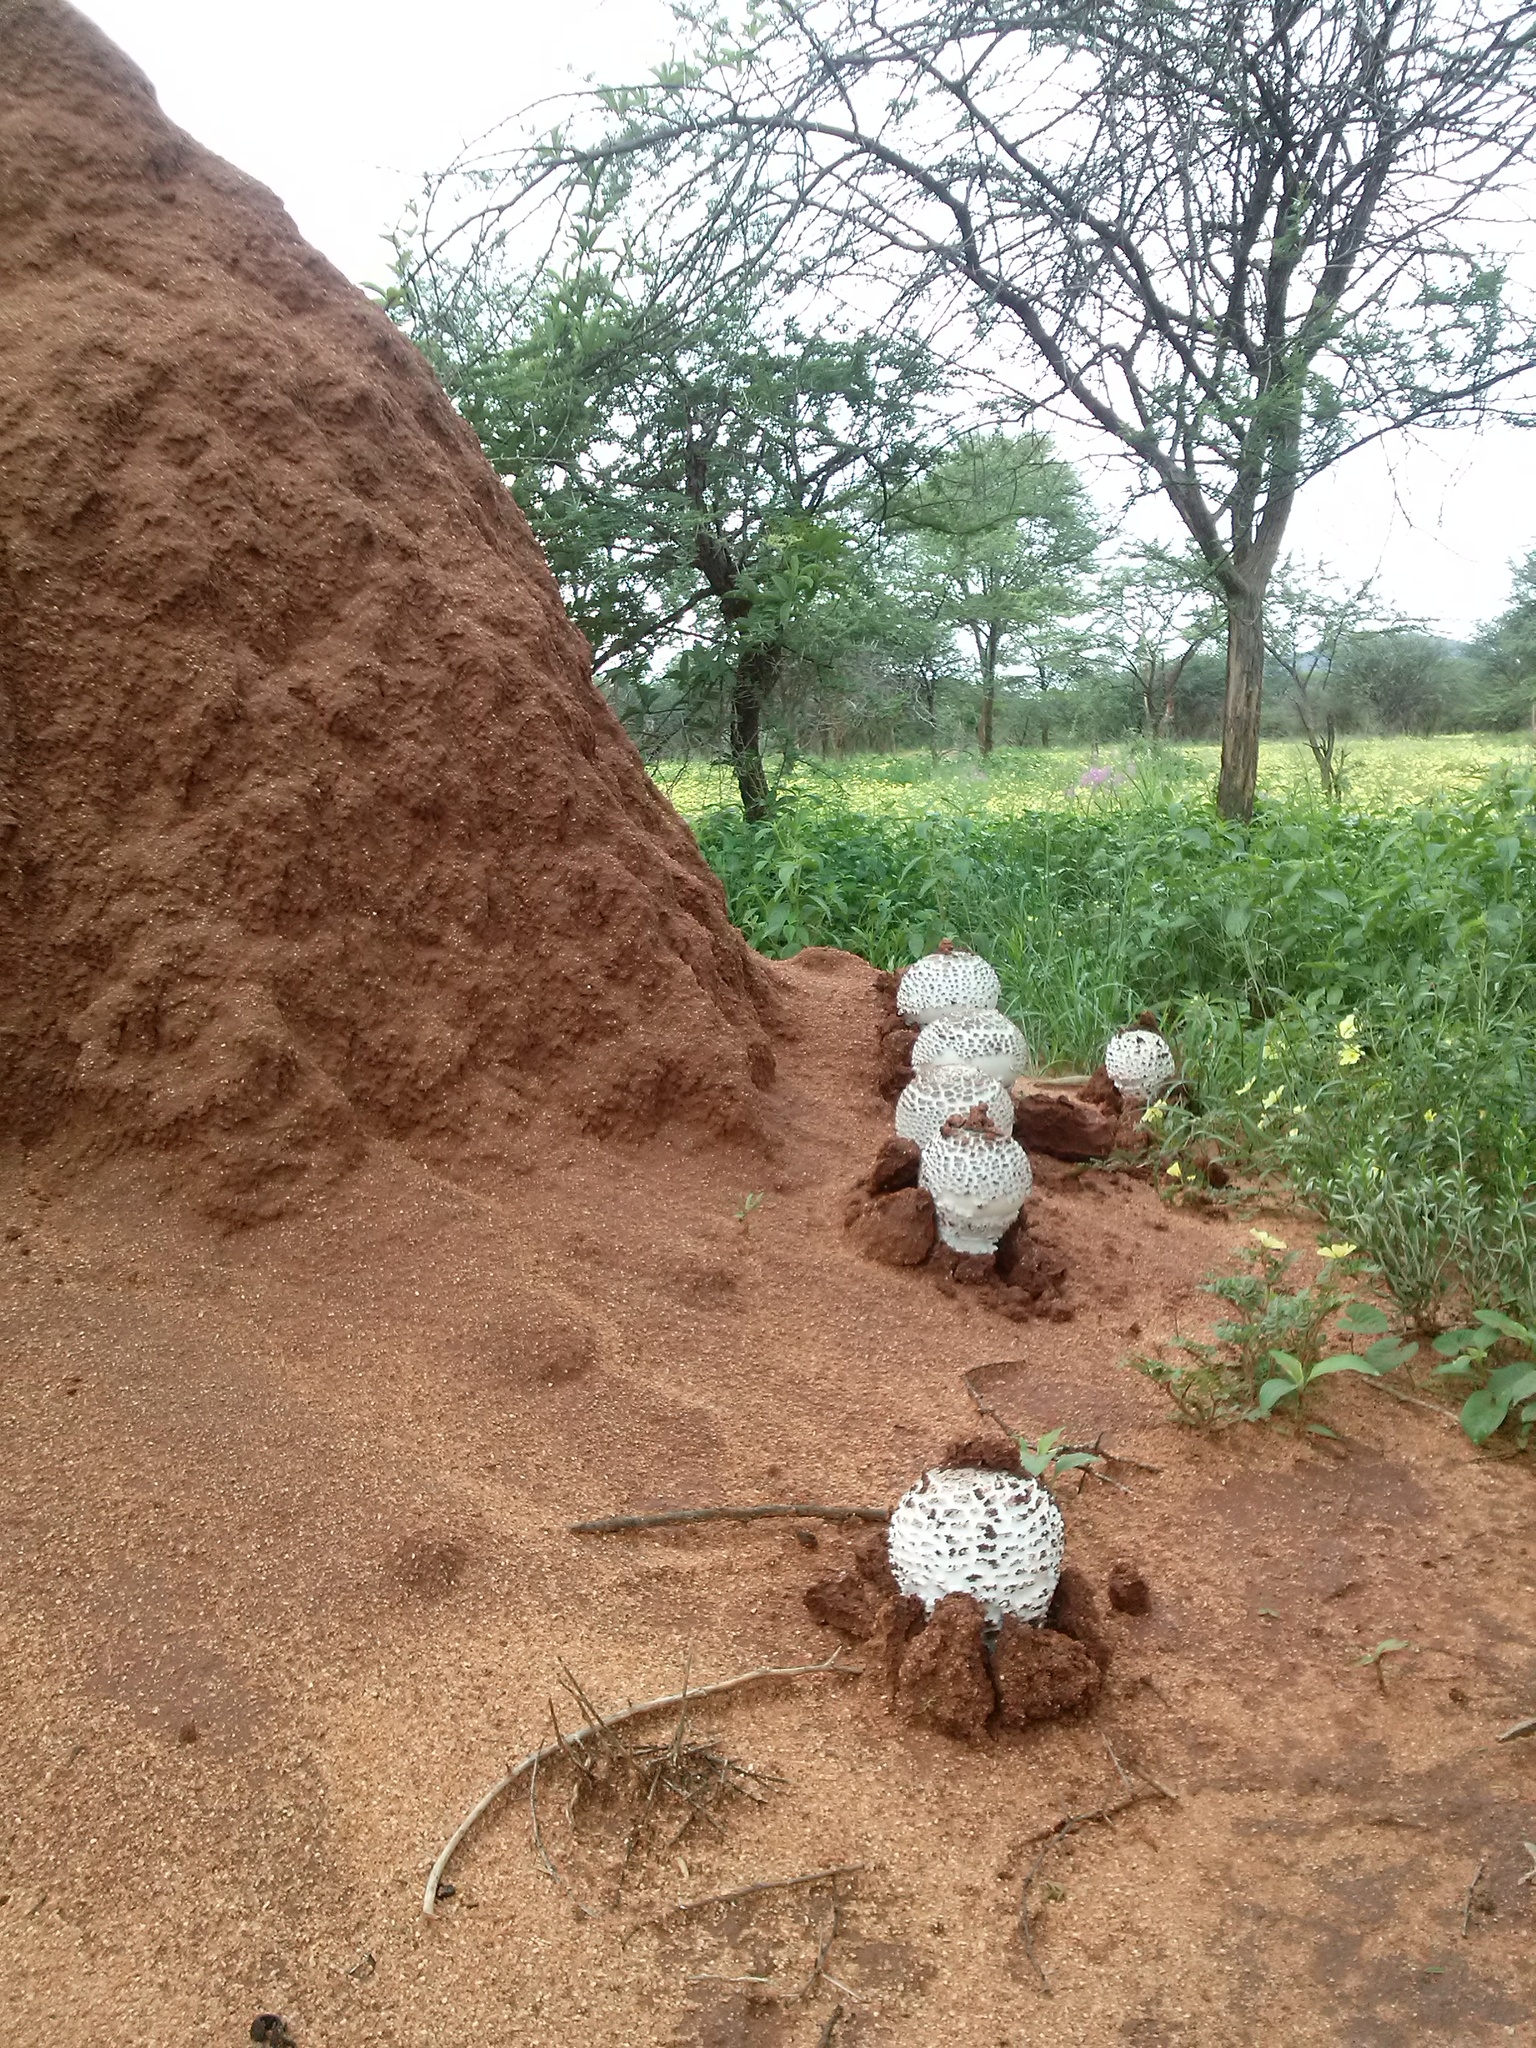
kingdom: Fungi
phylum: Basidiomycota
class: Agaricomycetes
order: Agaricales
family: Lyophyllaceae
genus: Termitomyces
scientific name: Termitomyces schimperi
